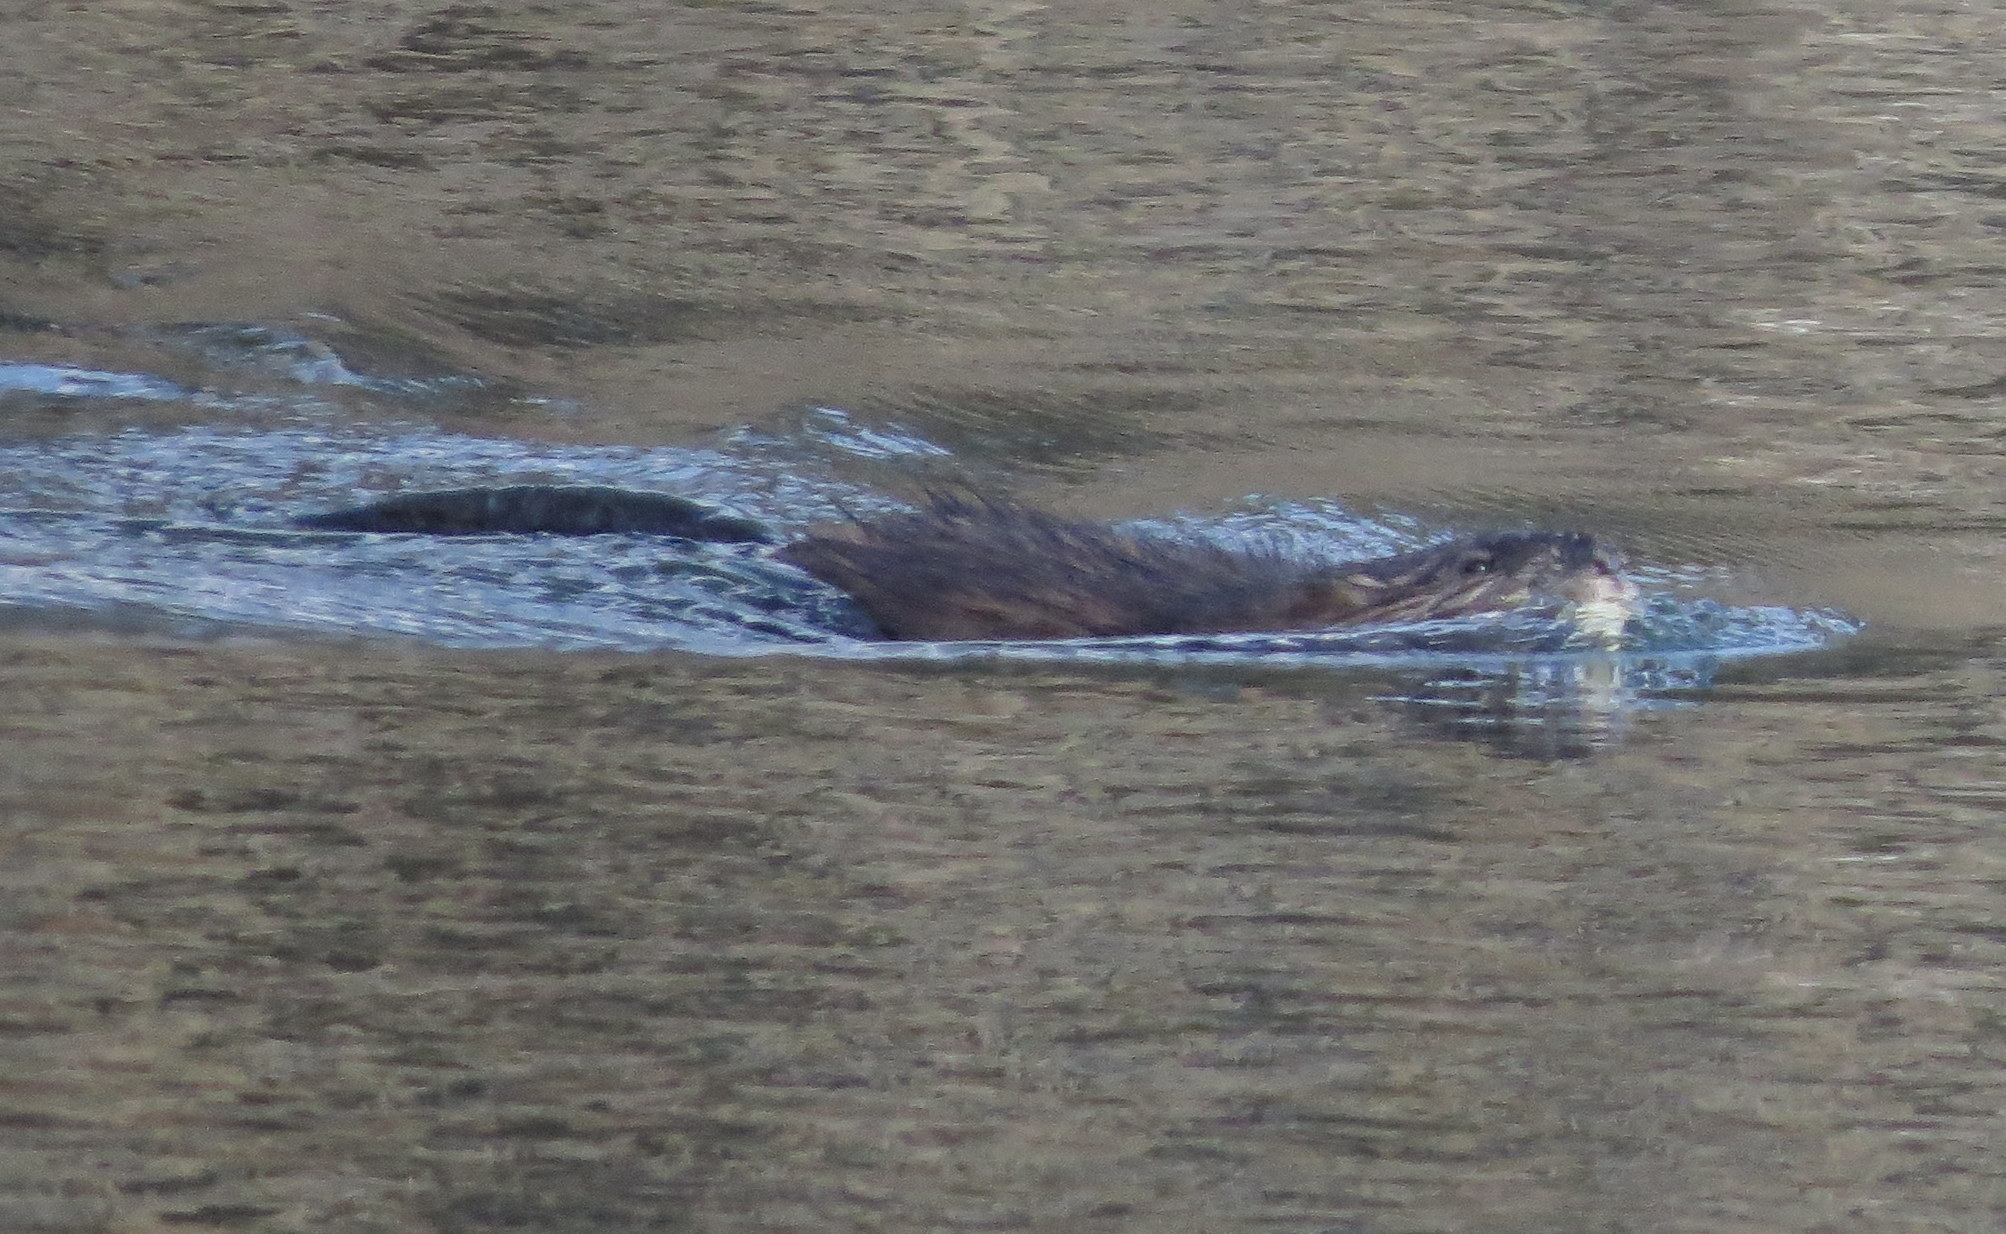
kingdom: Animalia
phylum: Chordata
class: Mammalia
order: Rodentia
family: Cricetidae
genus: Ondatra
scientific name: Ondatra zibethicus
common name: Muskrat
